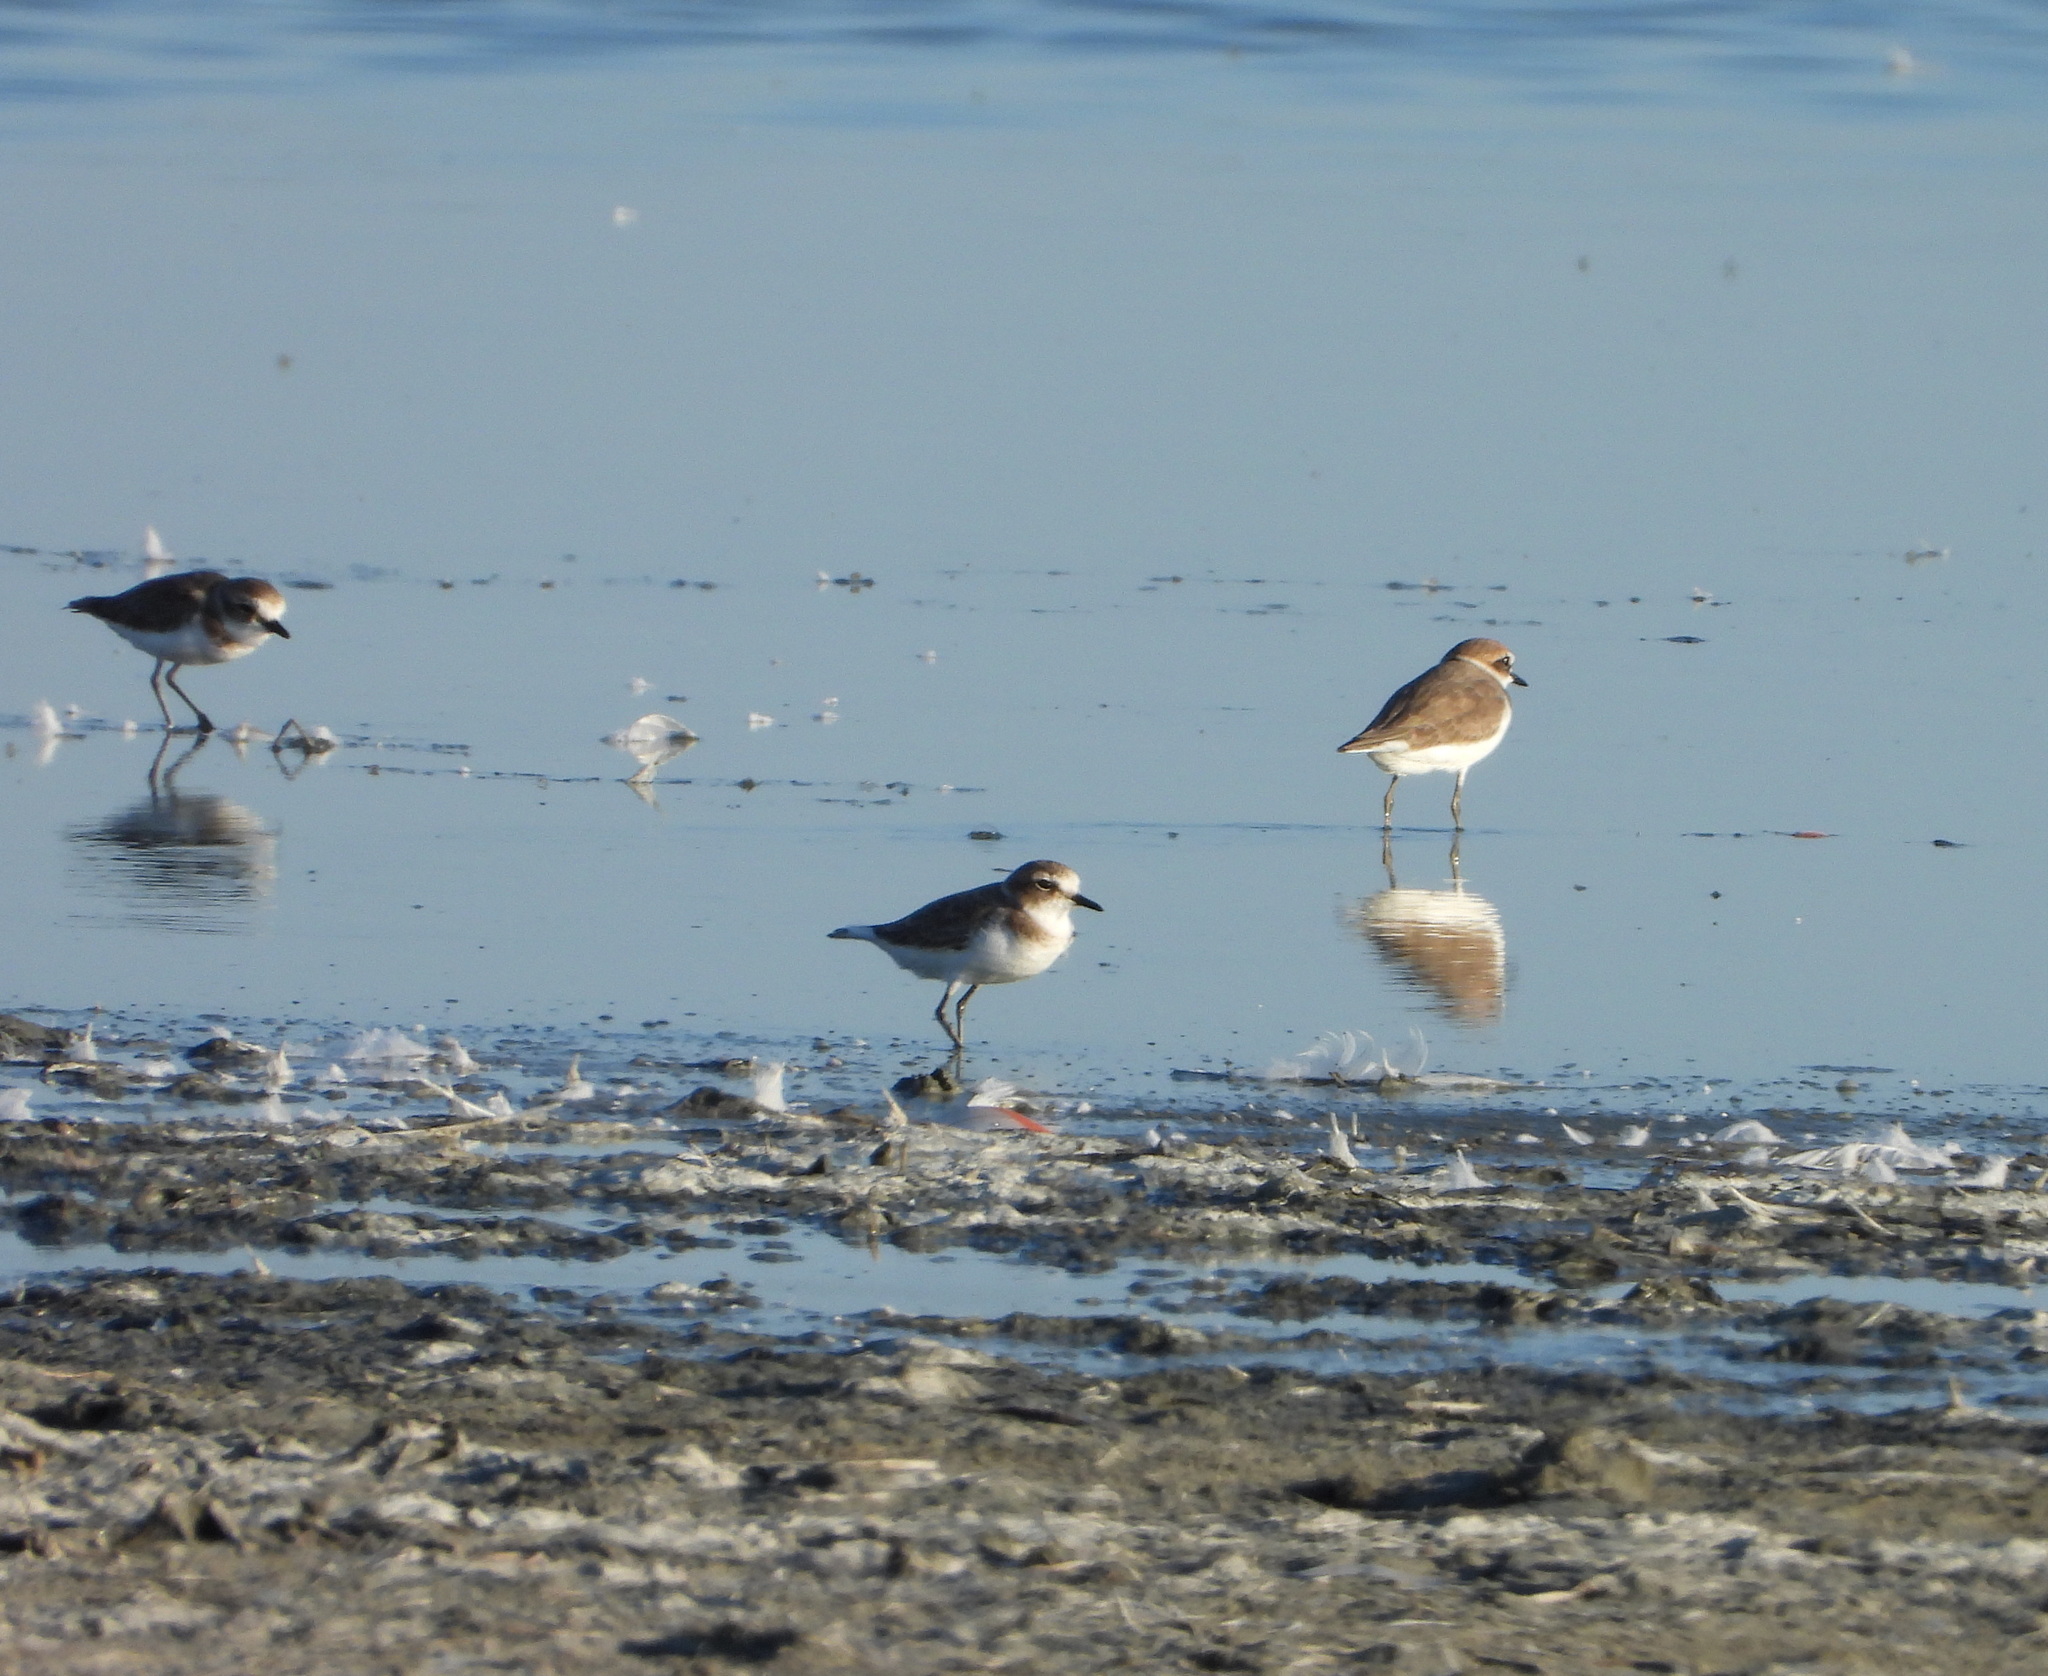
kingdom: Animalia
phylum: Chordata
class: Aves
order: Charadriiformes
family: Charadriidae
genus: Charadrius
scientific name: Charadrius alexandrinus
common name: Kentish plover
